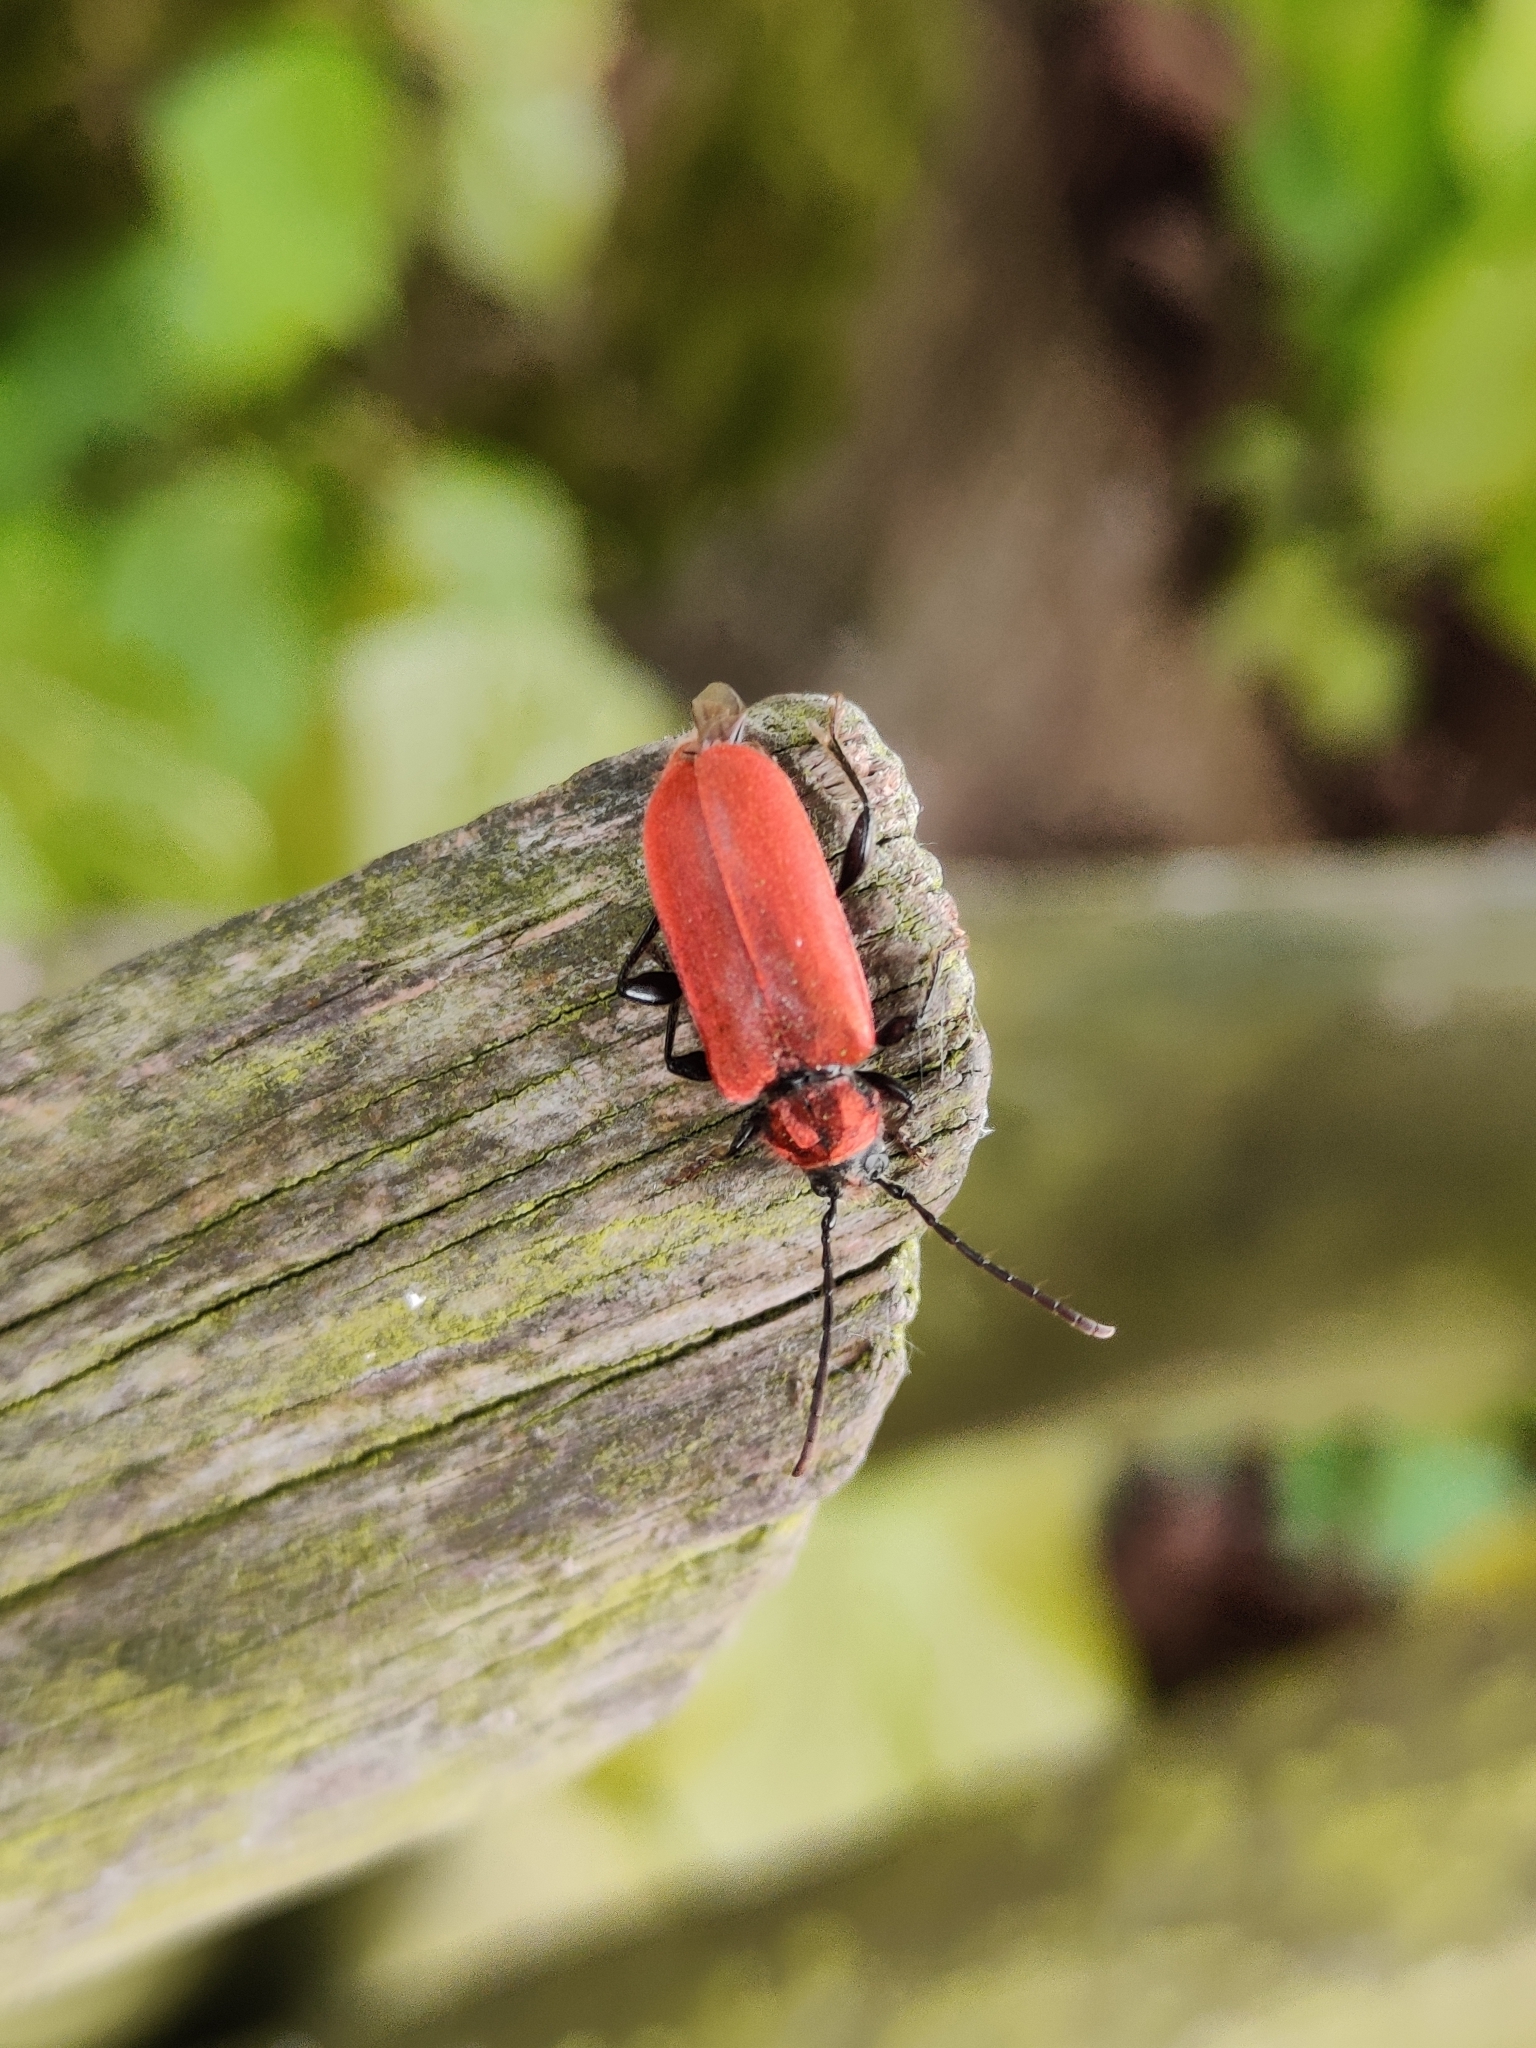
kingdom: Animalia
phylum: Arthropoda
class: Insecta
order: Coleoptera
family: Cerambycidae
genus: Pyrrhidium
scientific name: Pyrrhidium sanguineum
